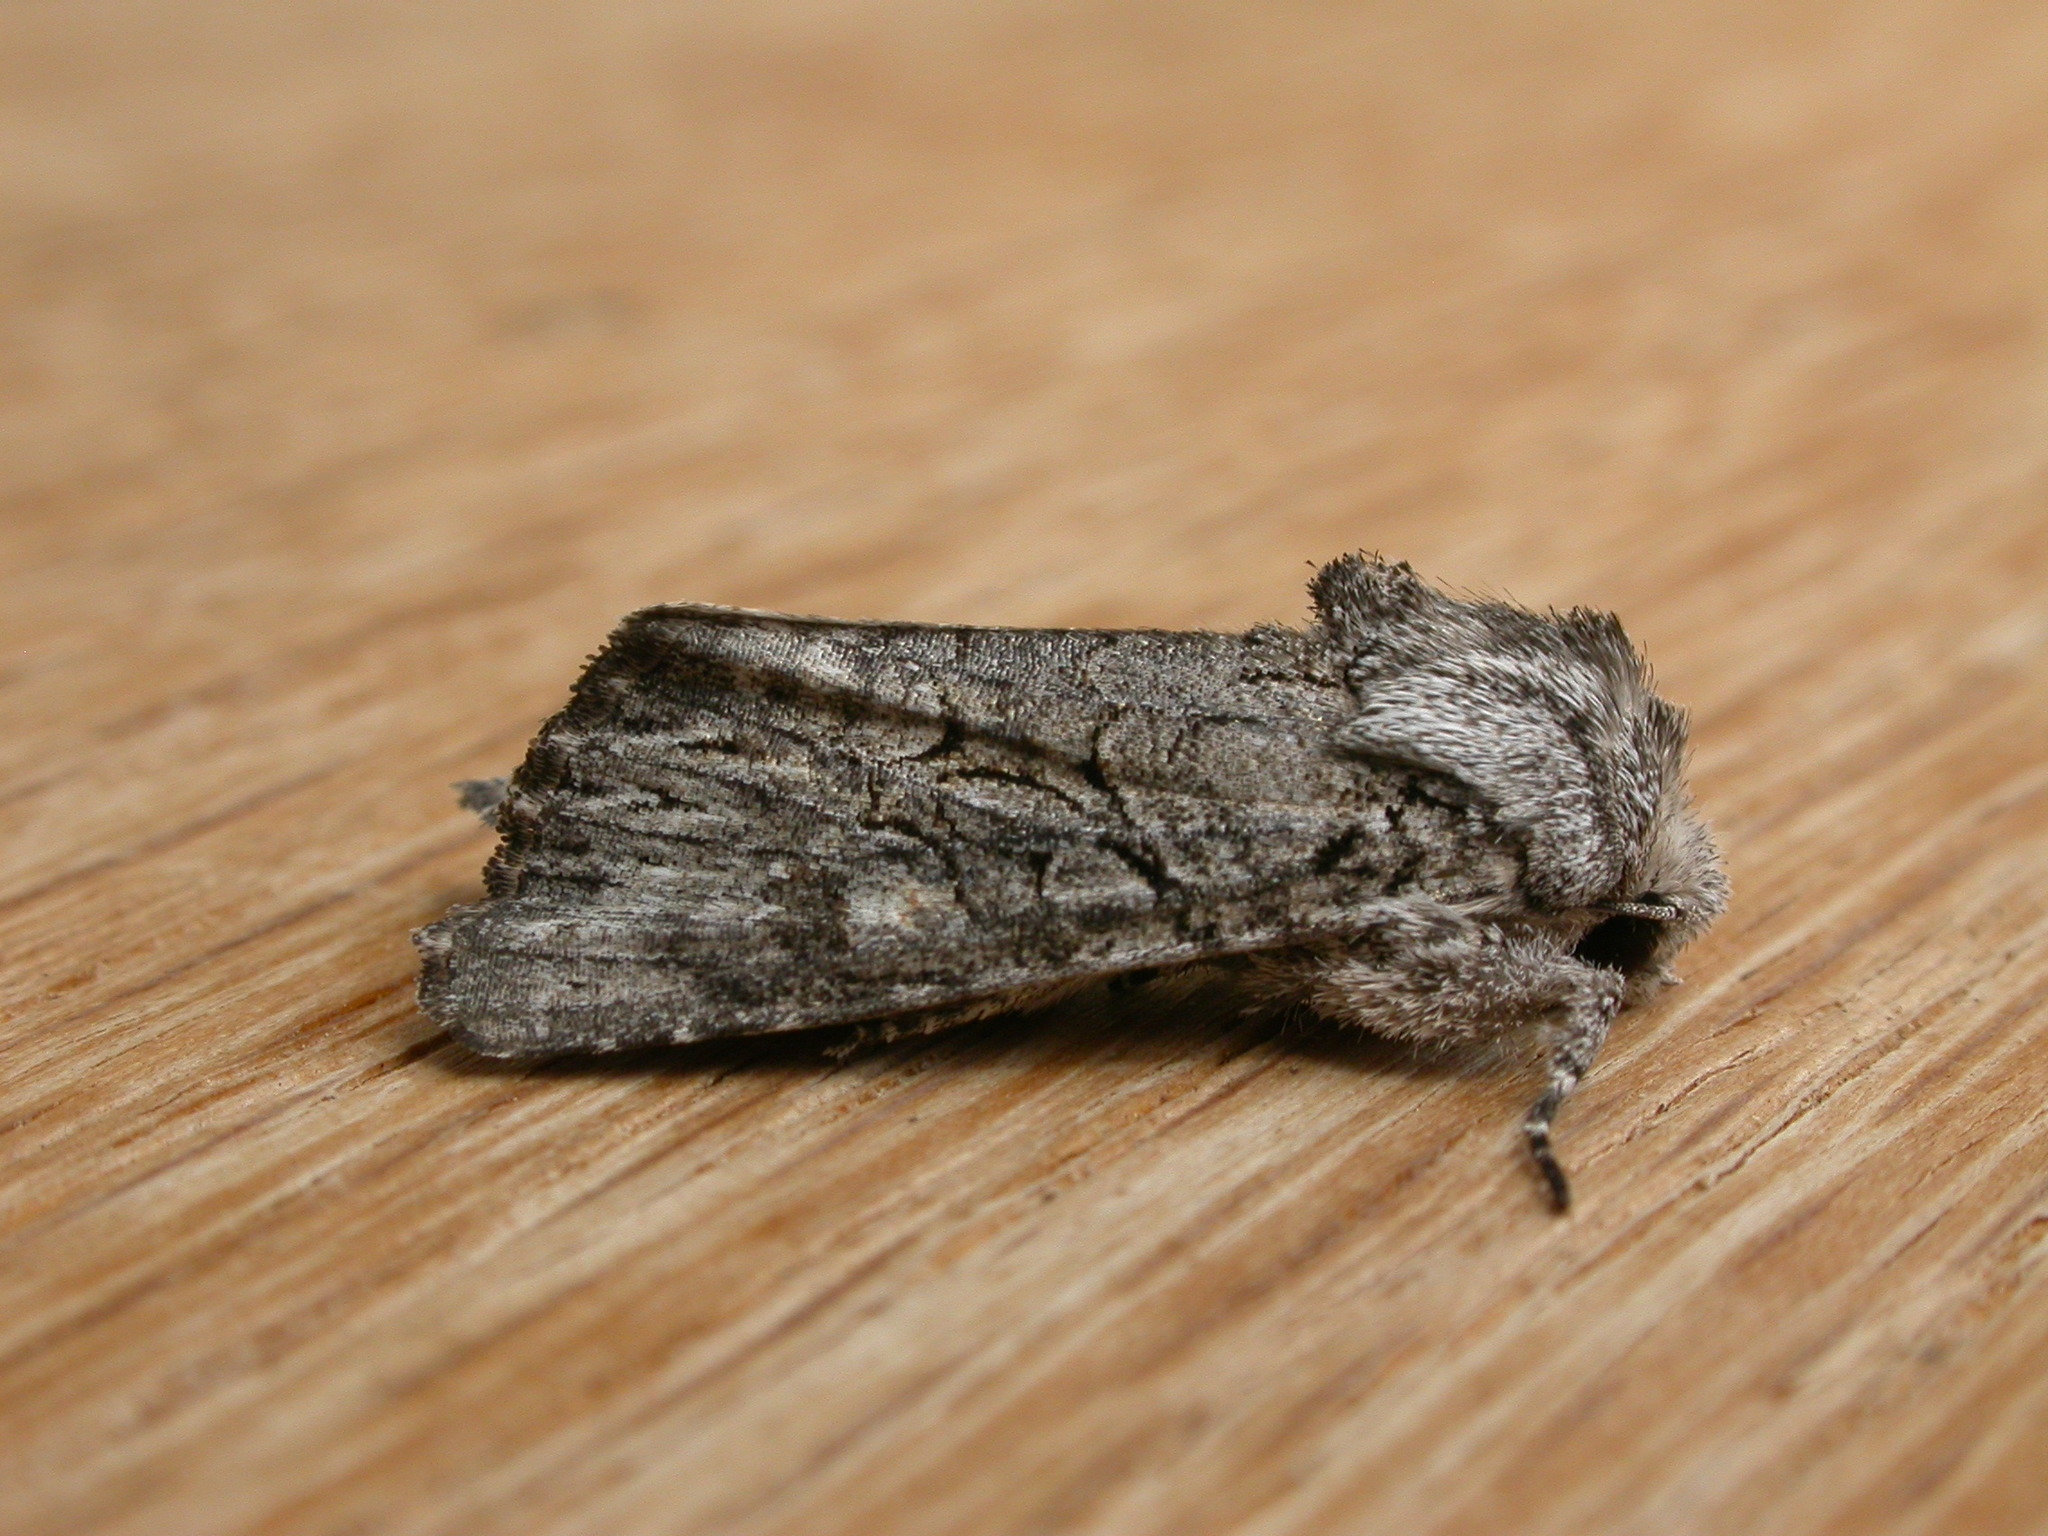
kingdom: Animalia
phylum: Arthropoda
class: Insecta
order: Lepidoptera
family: Noctuidae
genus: Neumichtis
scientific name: Neumichtis expulsa
